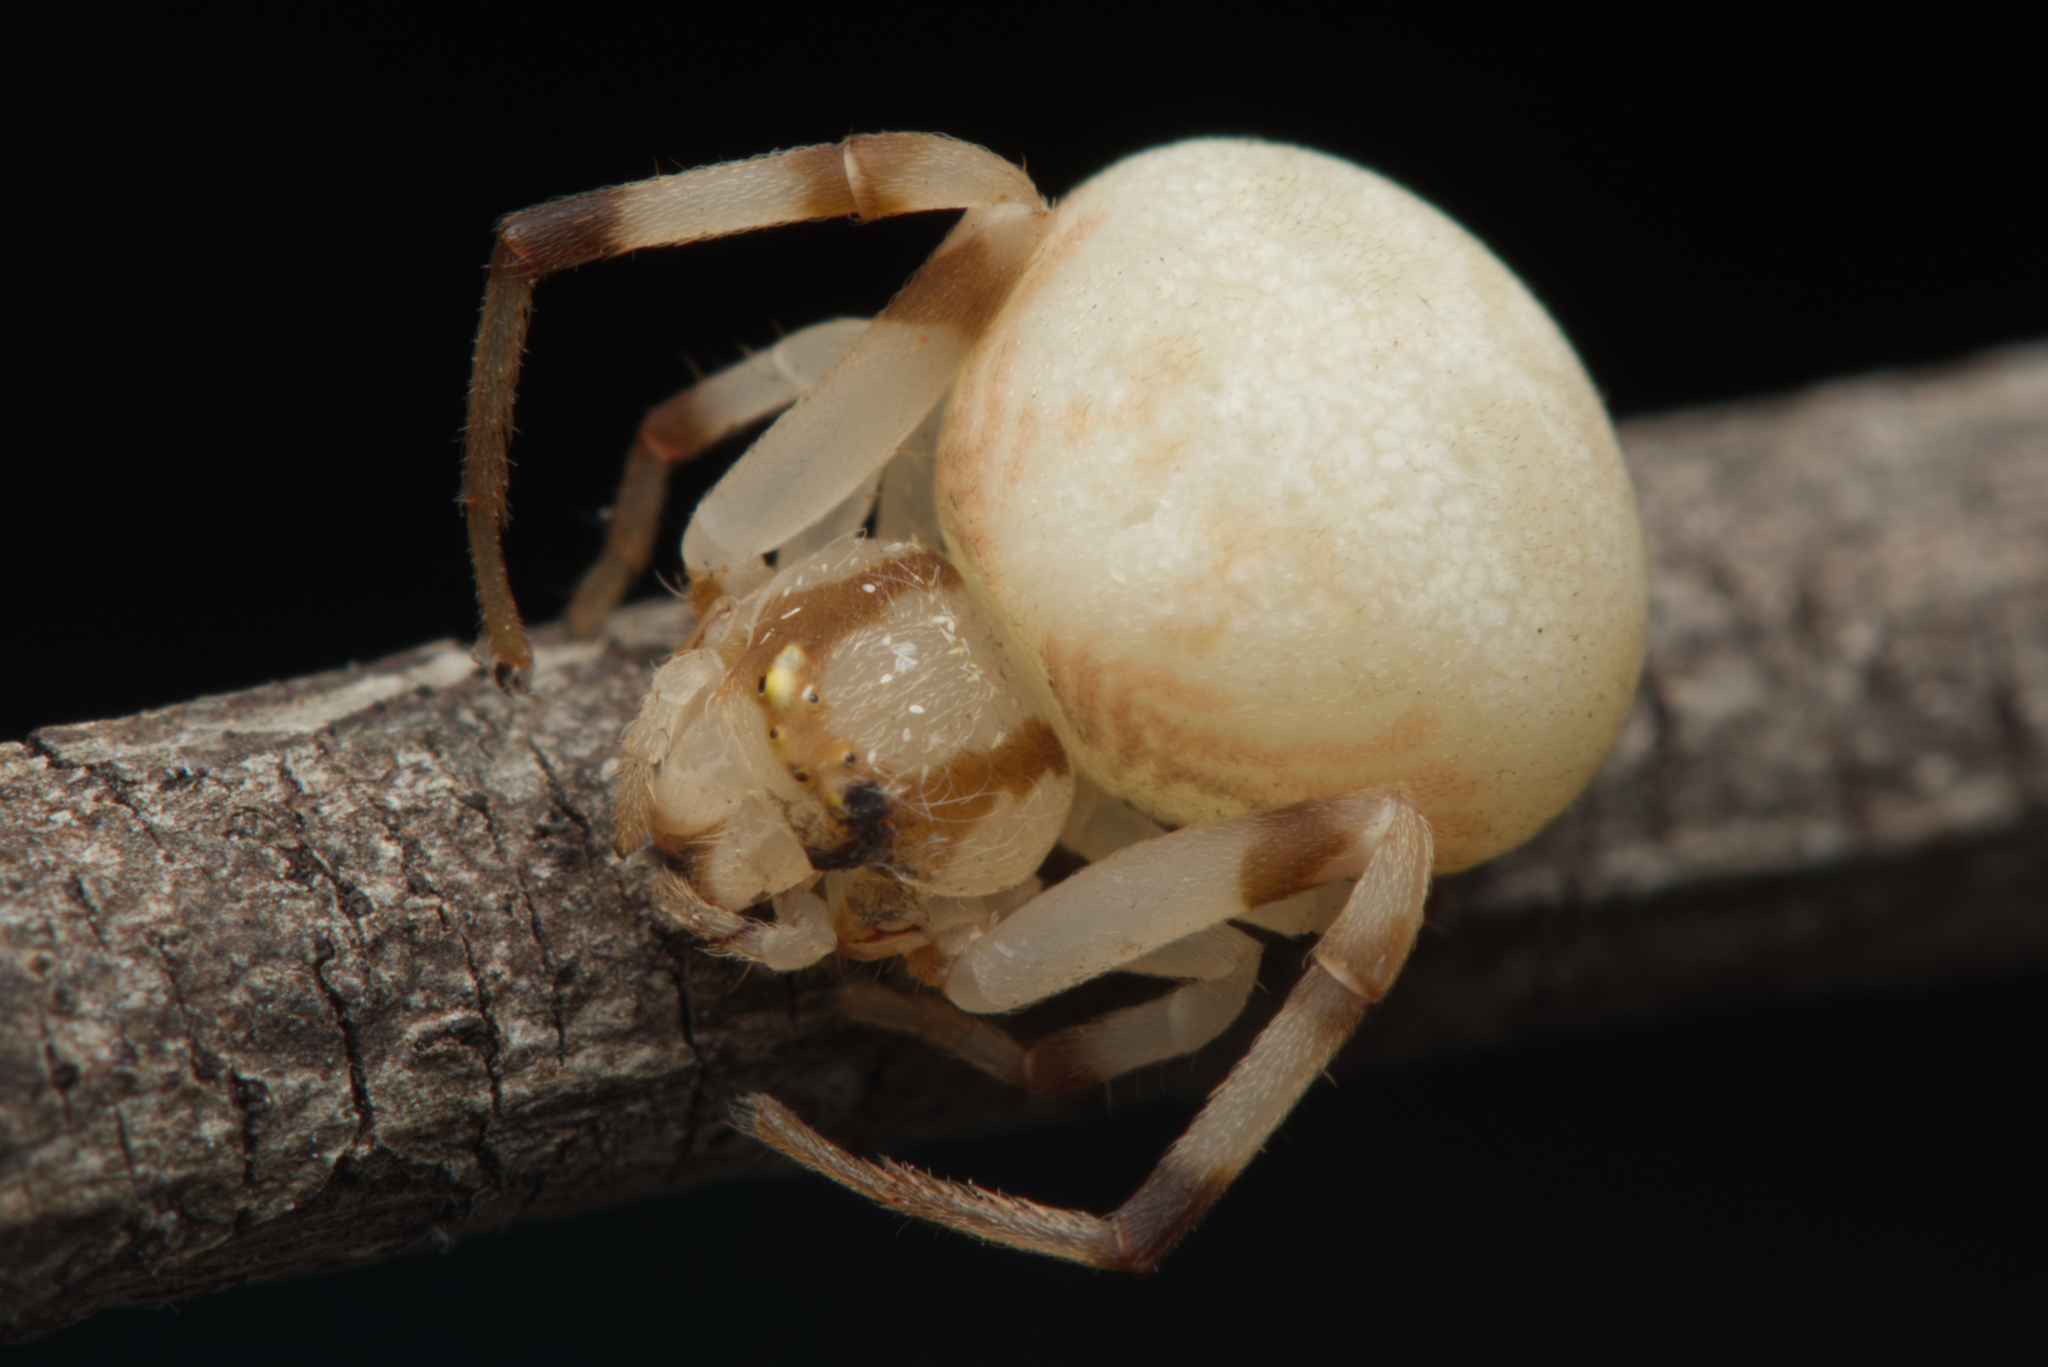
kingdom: Animalia
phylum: Arthropoda
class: Arachnida
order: Araneae
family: Thomisidae
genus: Zygometis
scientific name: Zygometis xanthogaster
